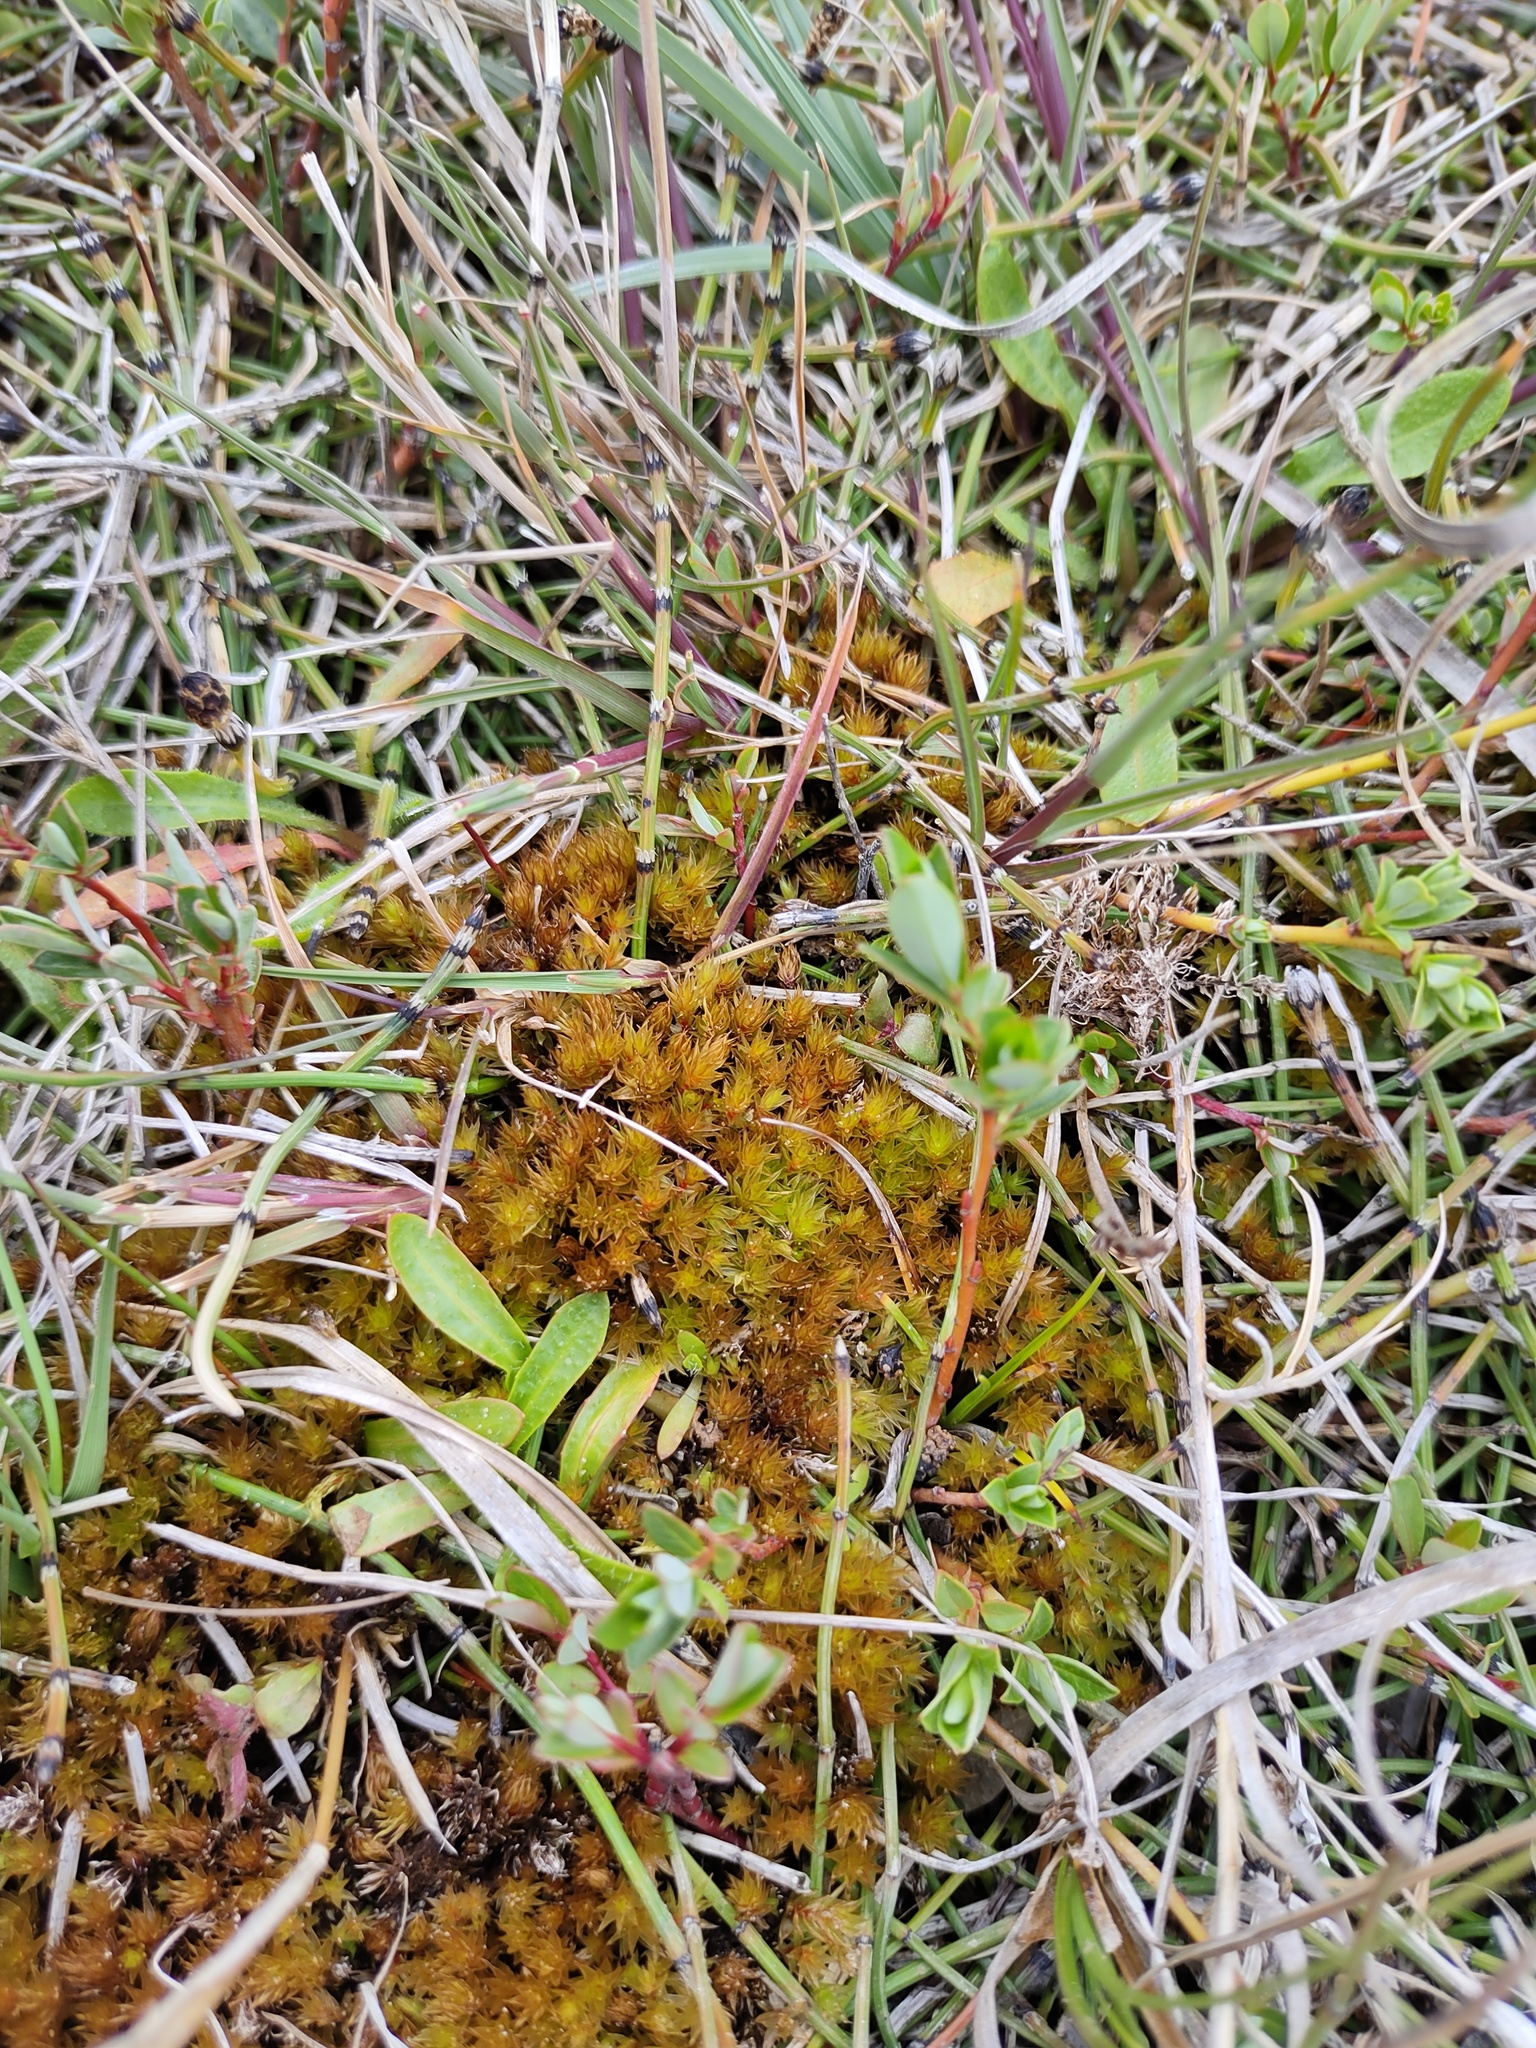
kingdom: Plantae
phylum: Bryophyta
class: Bryopsida
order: Bryales
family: Bryaceae
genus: Ptychostomum
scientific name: Ptychostomum pseudotriquetrum
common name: Long-leaved thread moss
